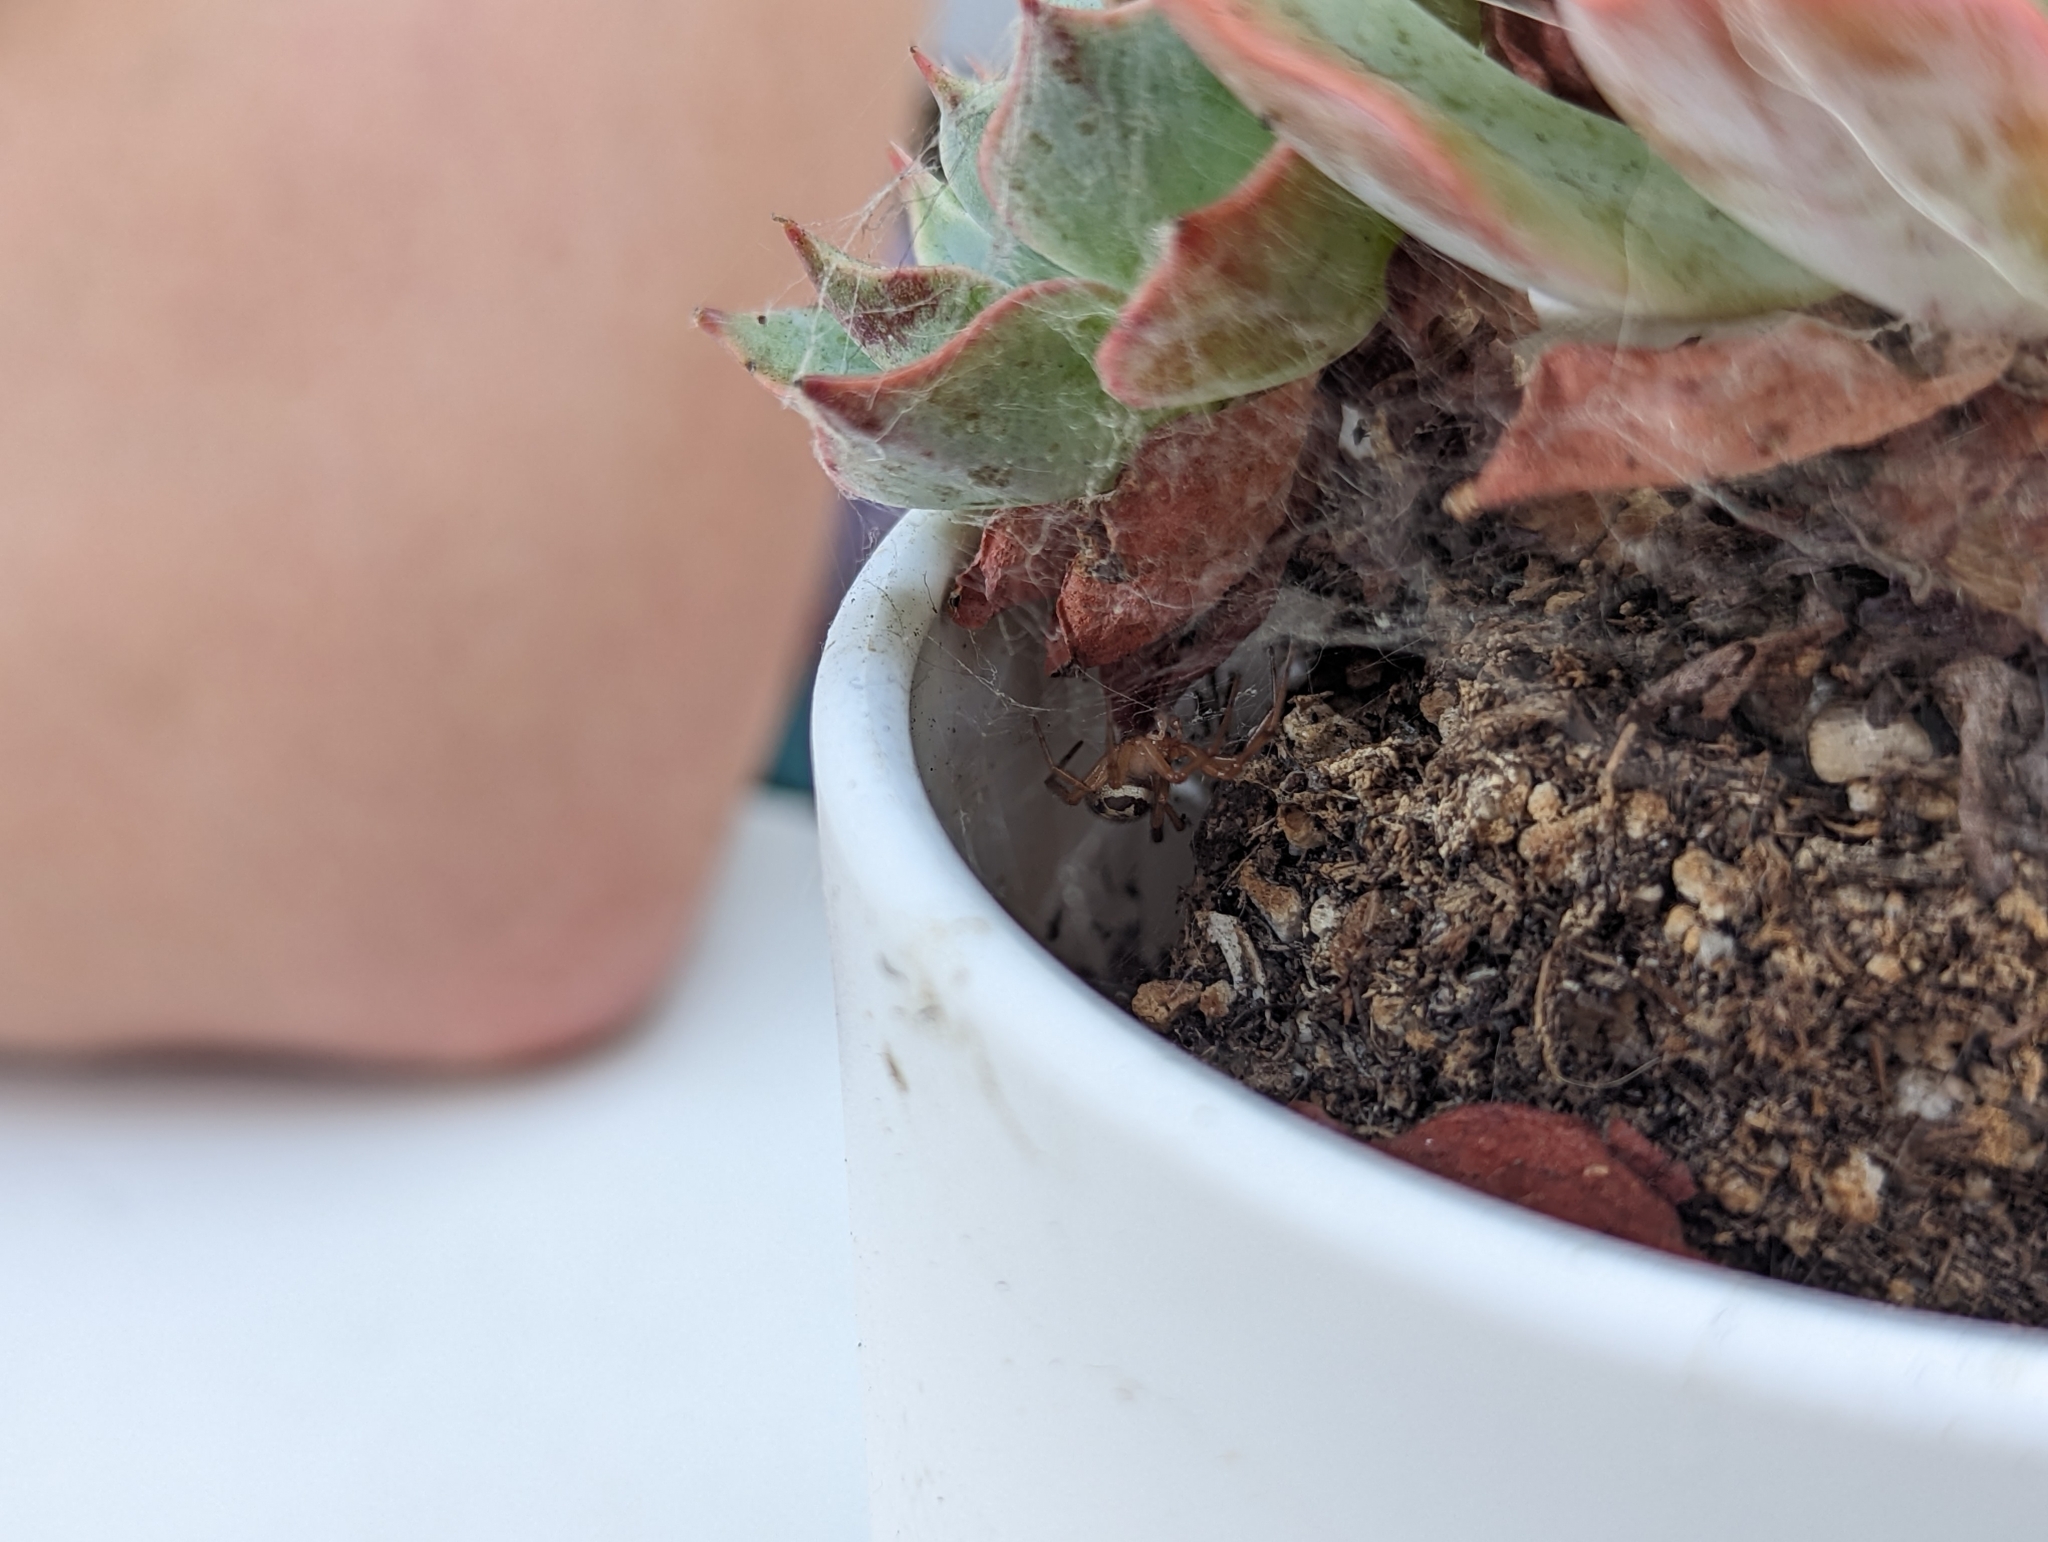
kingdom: Animalia
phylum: Arthropoda
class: Arachnida
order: Araneae
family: Theridiidae
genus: Steatoda
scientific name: Steatoda nobilis
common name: Cobweb weaver
